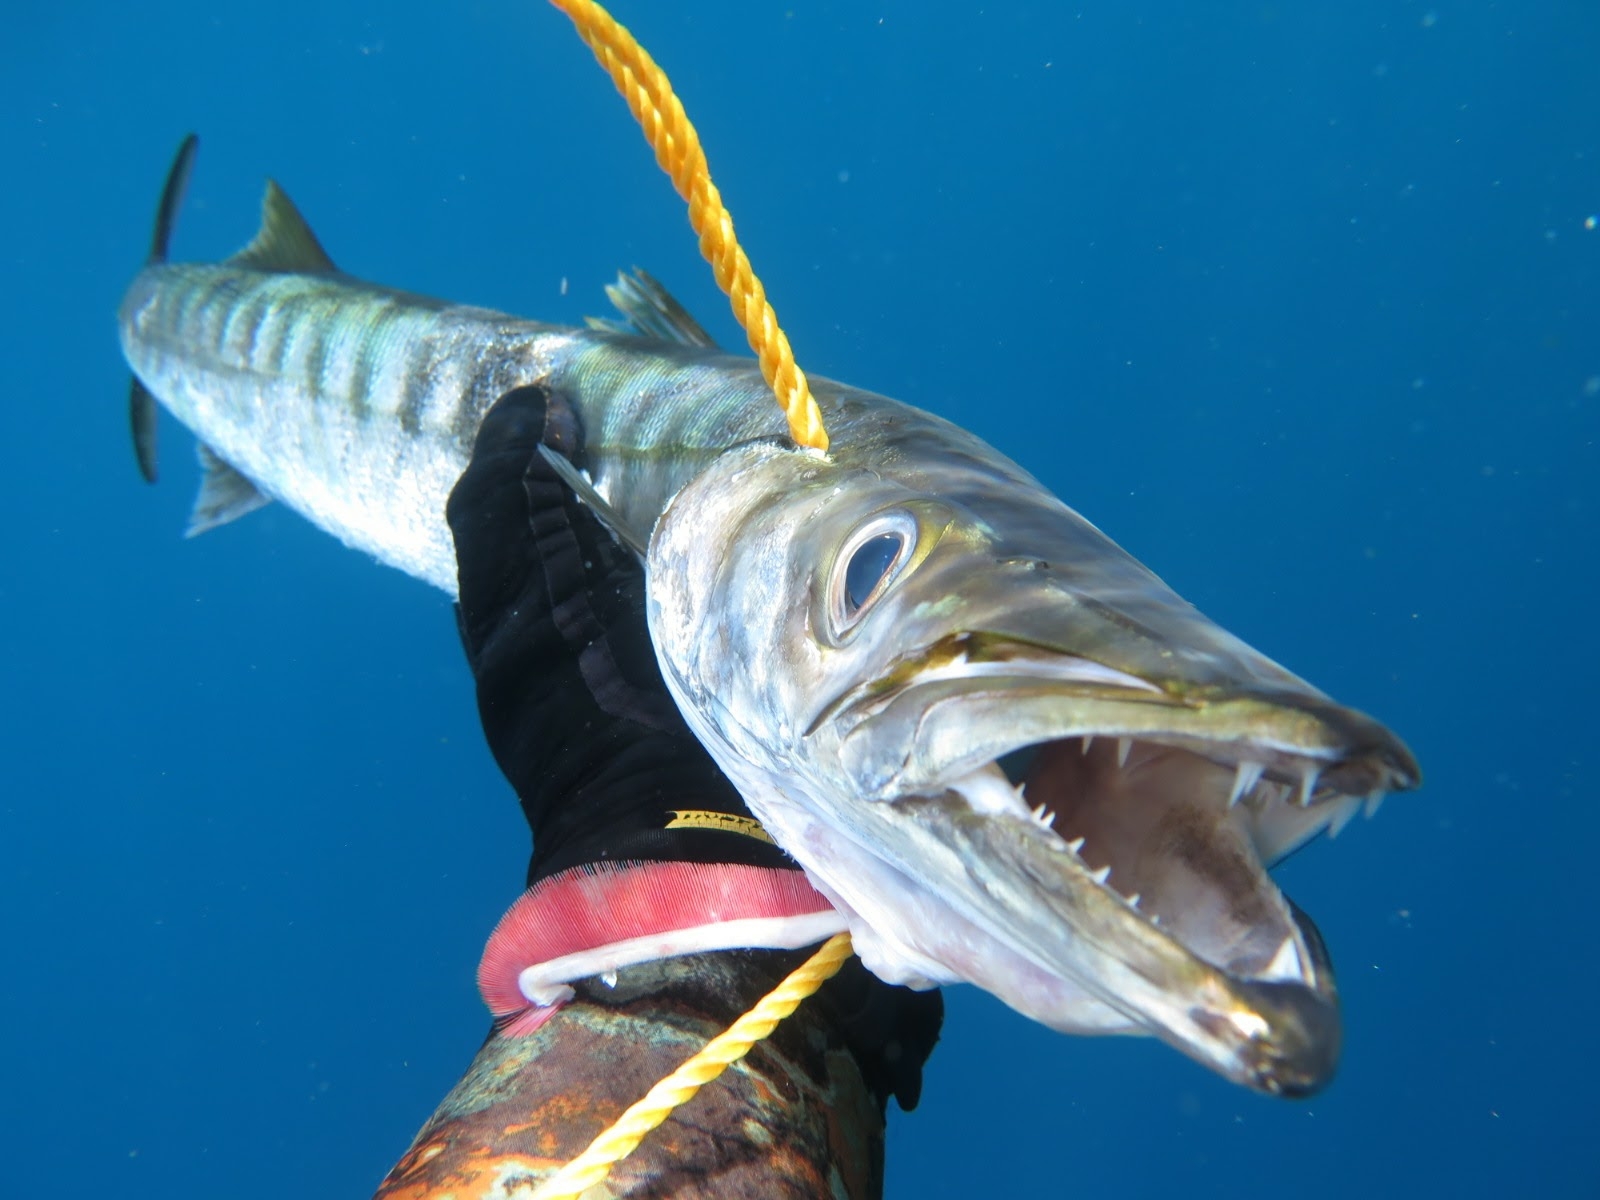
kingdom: Animalia
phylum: Chordata
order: Perciformes
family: Sphyraenidae
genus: Sphyraena
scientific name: Sphyraena viridensis
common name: Yellowmouth barracuda
